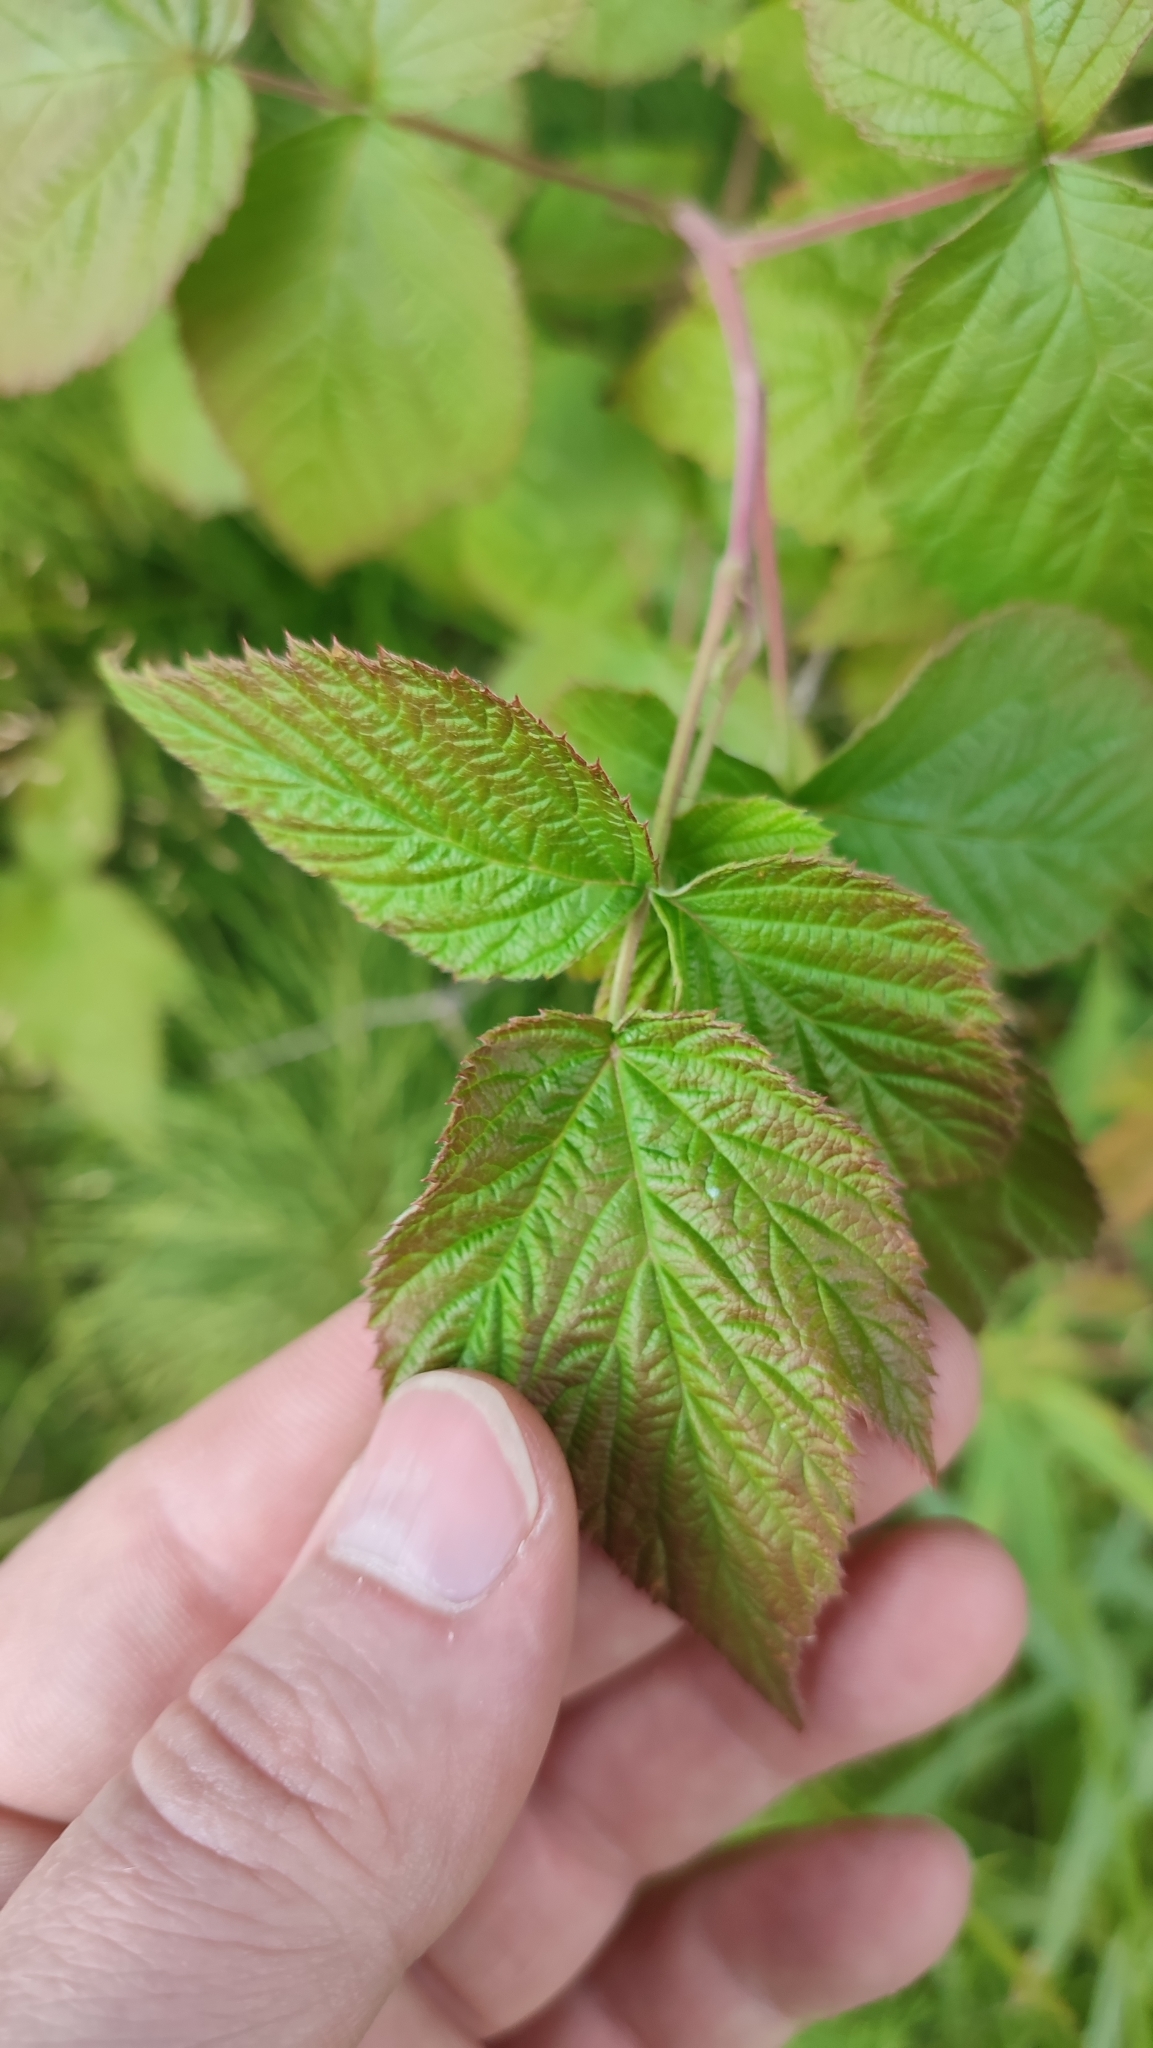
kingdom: Plantae
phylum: Tracheophyta
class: Magnoliopsida
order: Rosales
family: Rosaceae
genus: Rubus
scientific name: Rubus idaeus
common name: Raspberry
